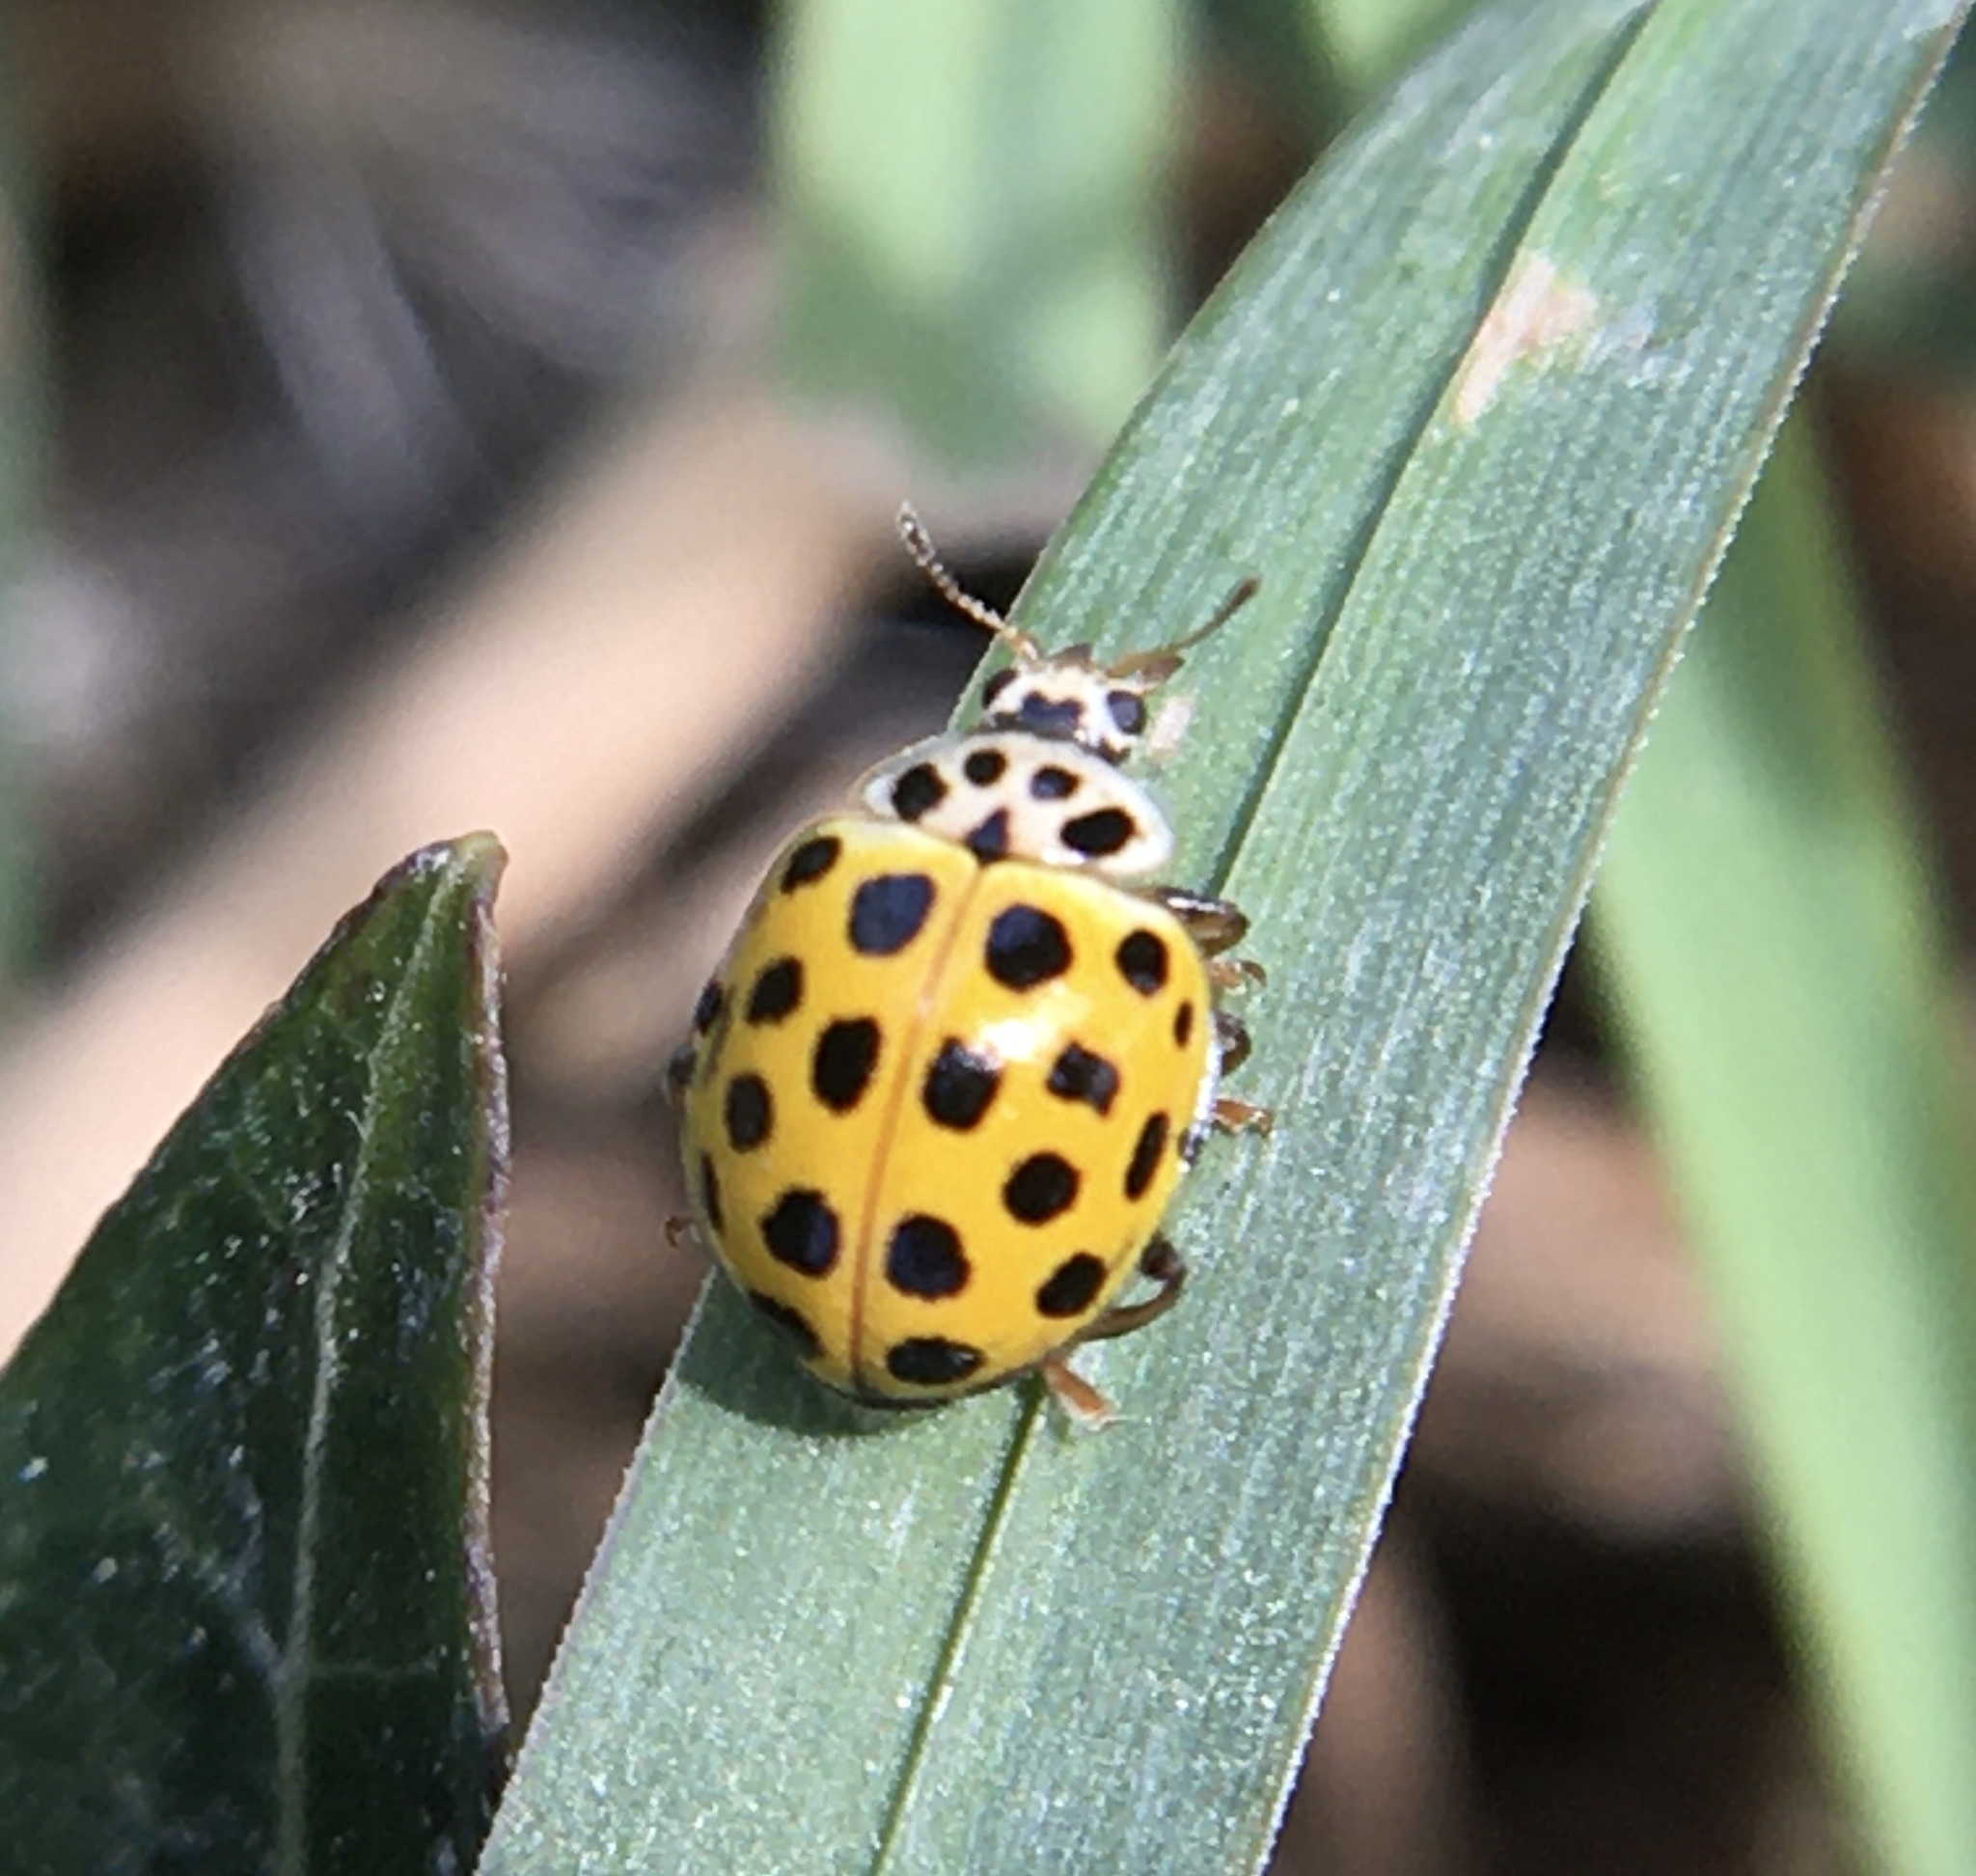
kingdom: Animalia
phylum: Arthropoda
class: Insecta
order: Coleoptera
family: Coccinellidae
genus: Psyllobora
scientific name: Psyllobora vigintiduopunctata
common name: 22-spot ladybird
